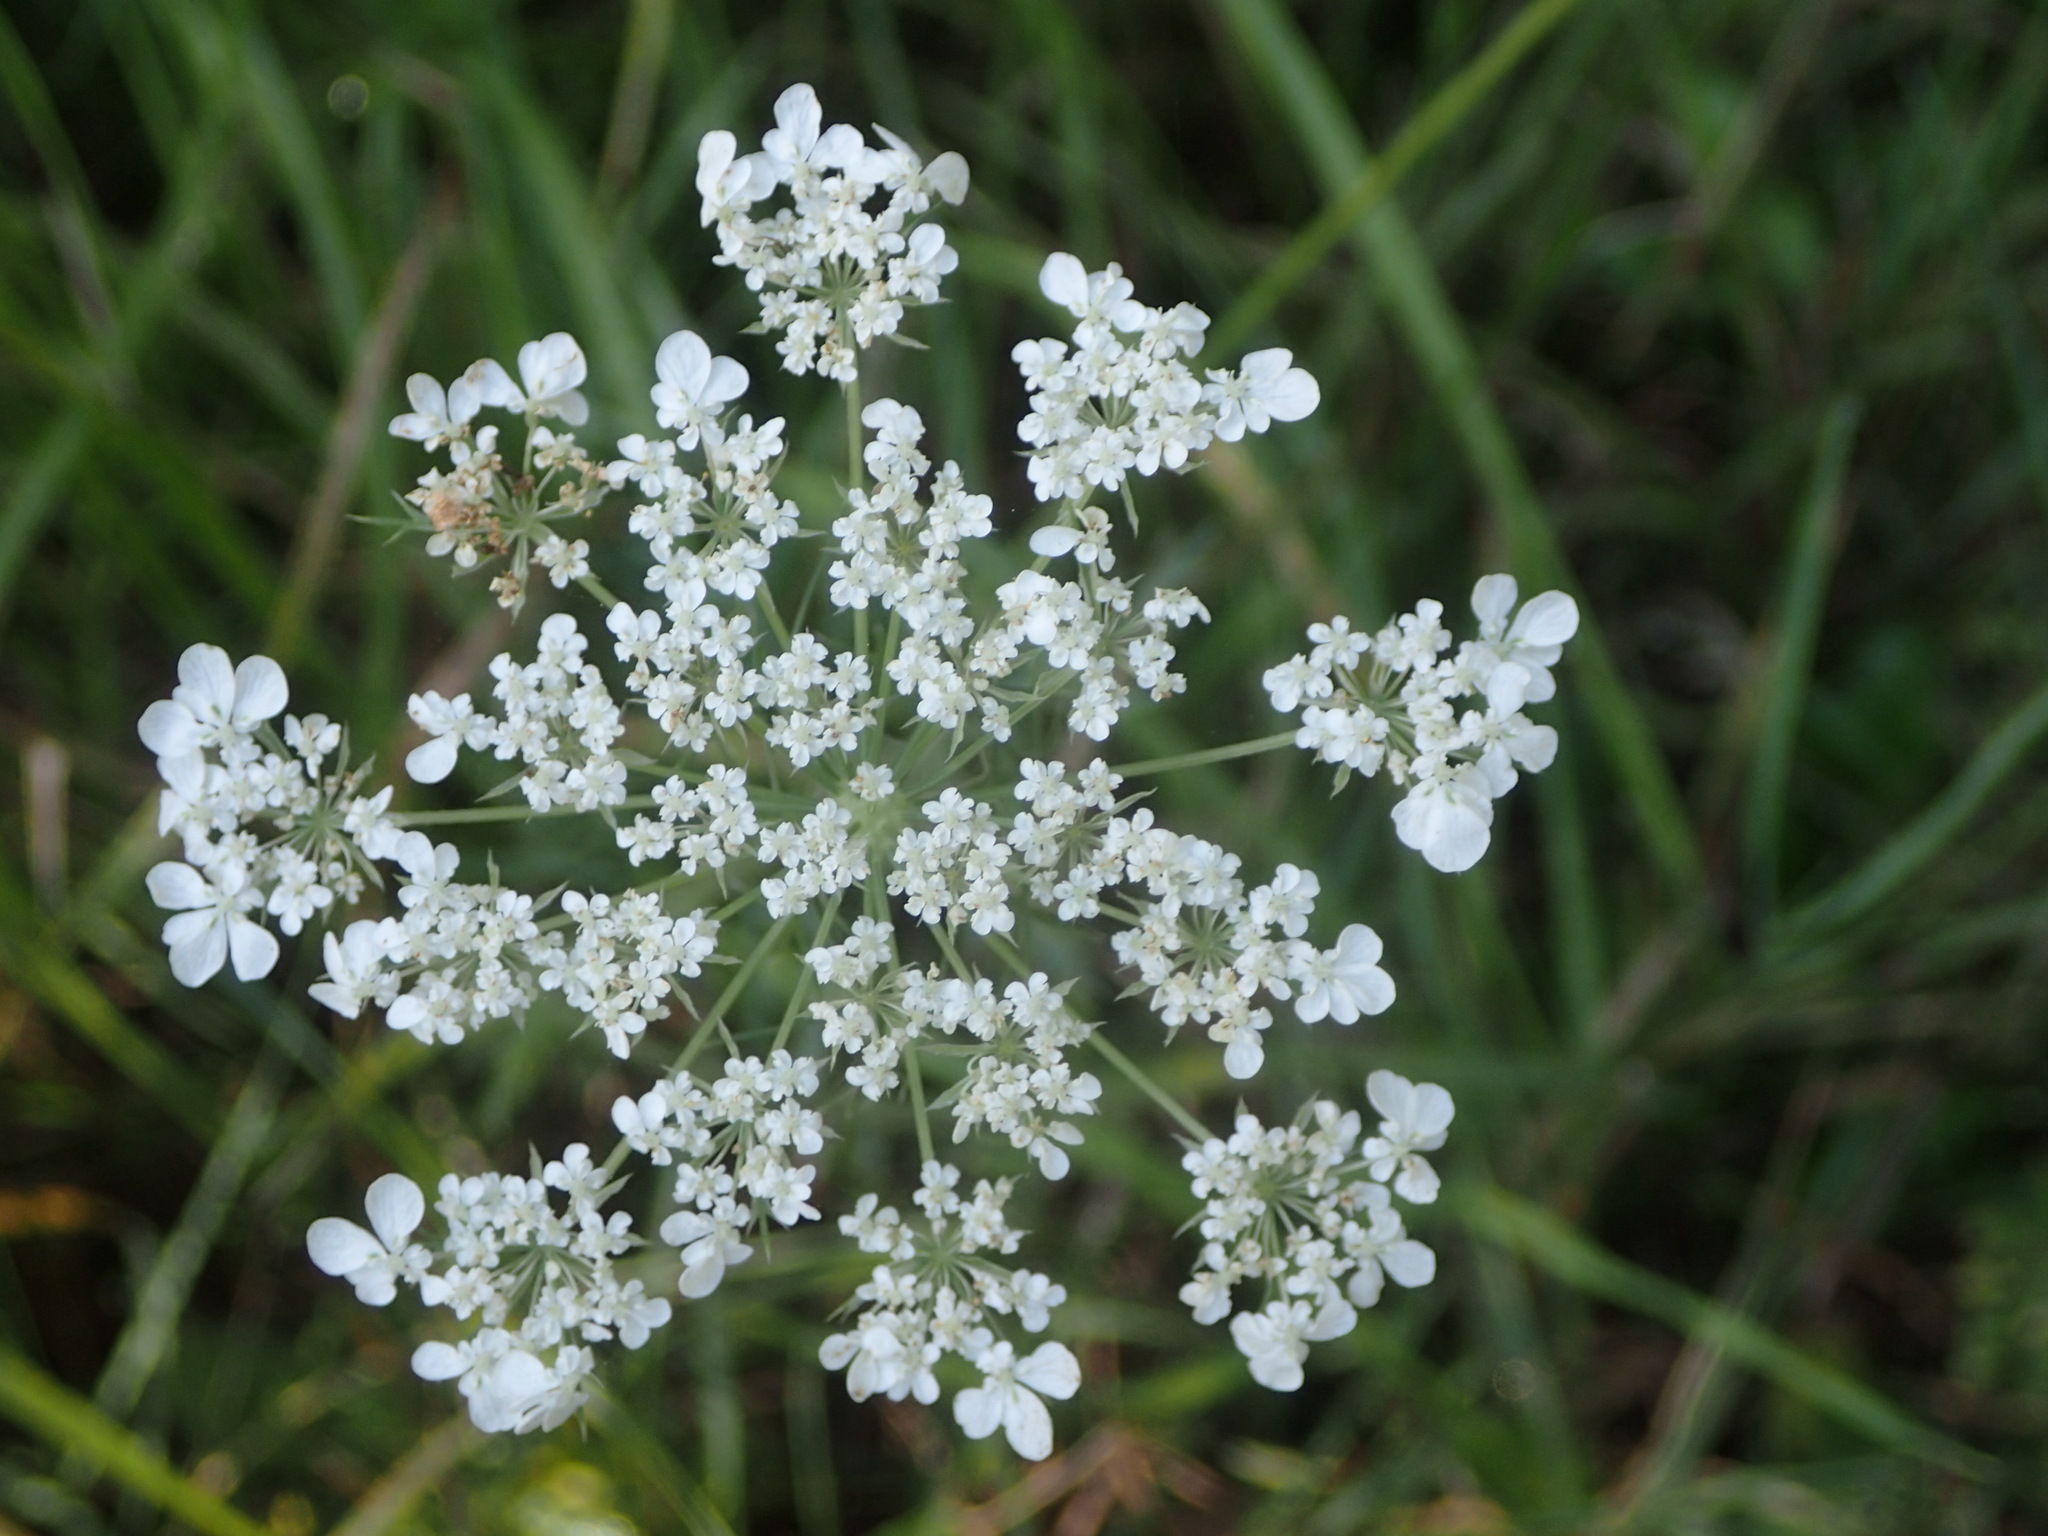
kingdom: Plantae
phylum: Tracheophyta
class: Magnoliopsida
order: Apiales
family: Apiaceae
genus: Daucus
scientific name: Daucus carota
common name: Wild carrot
